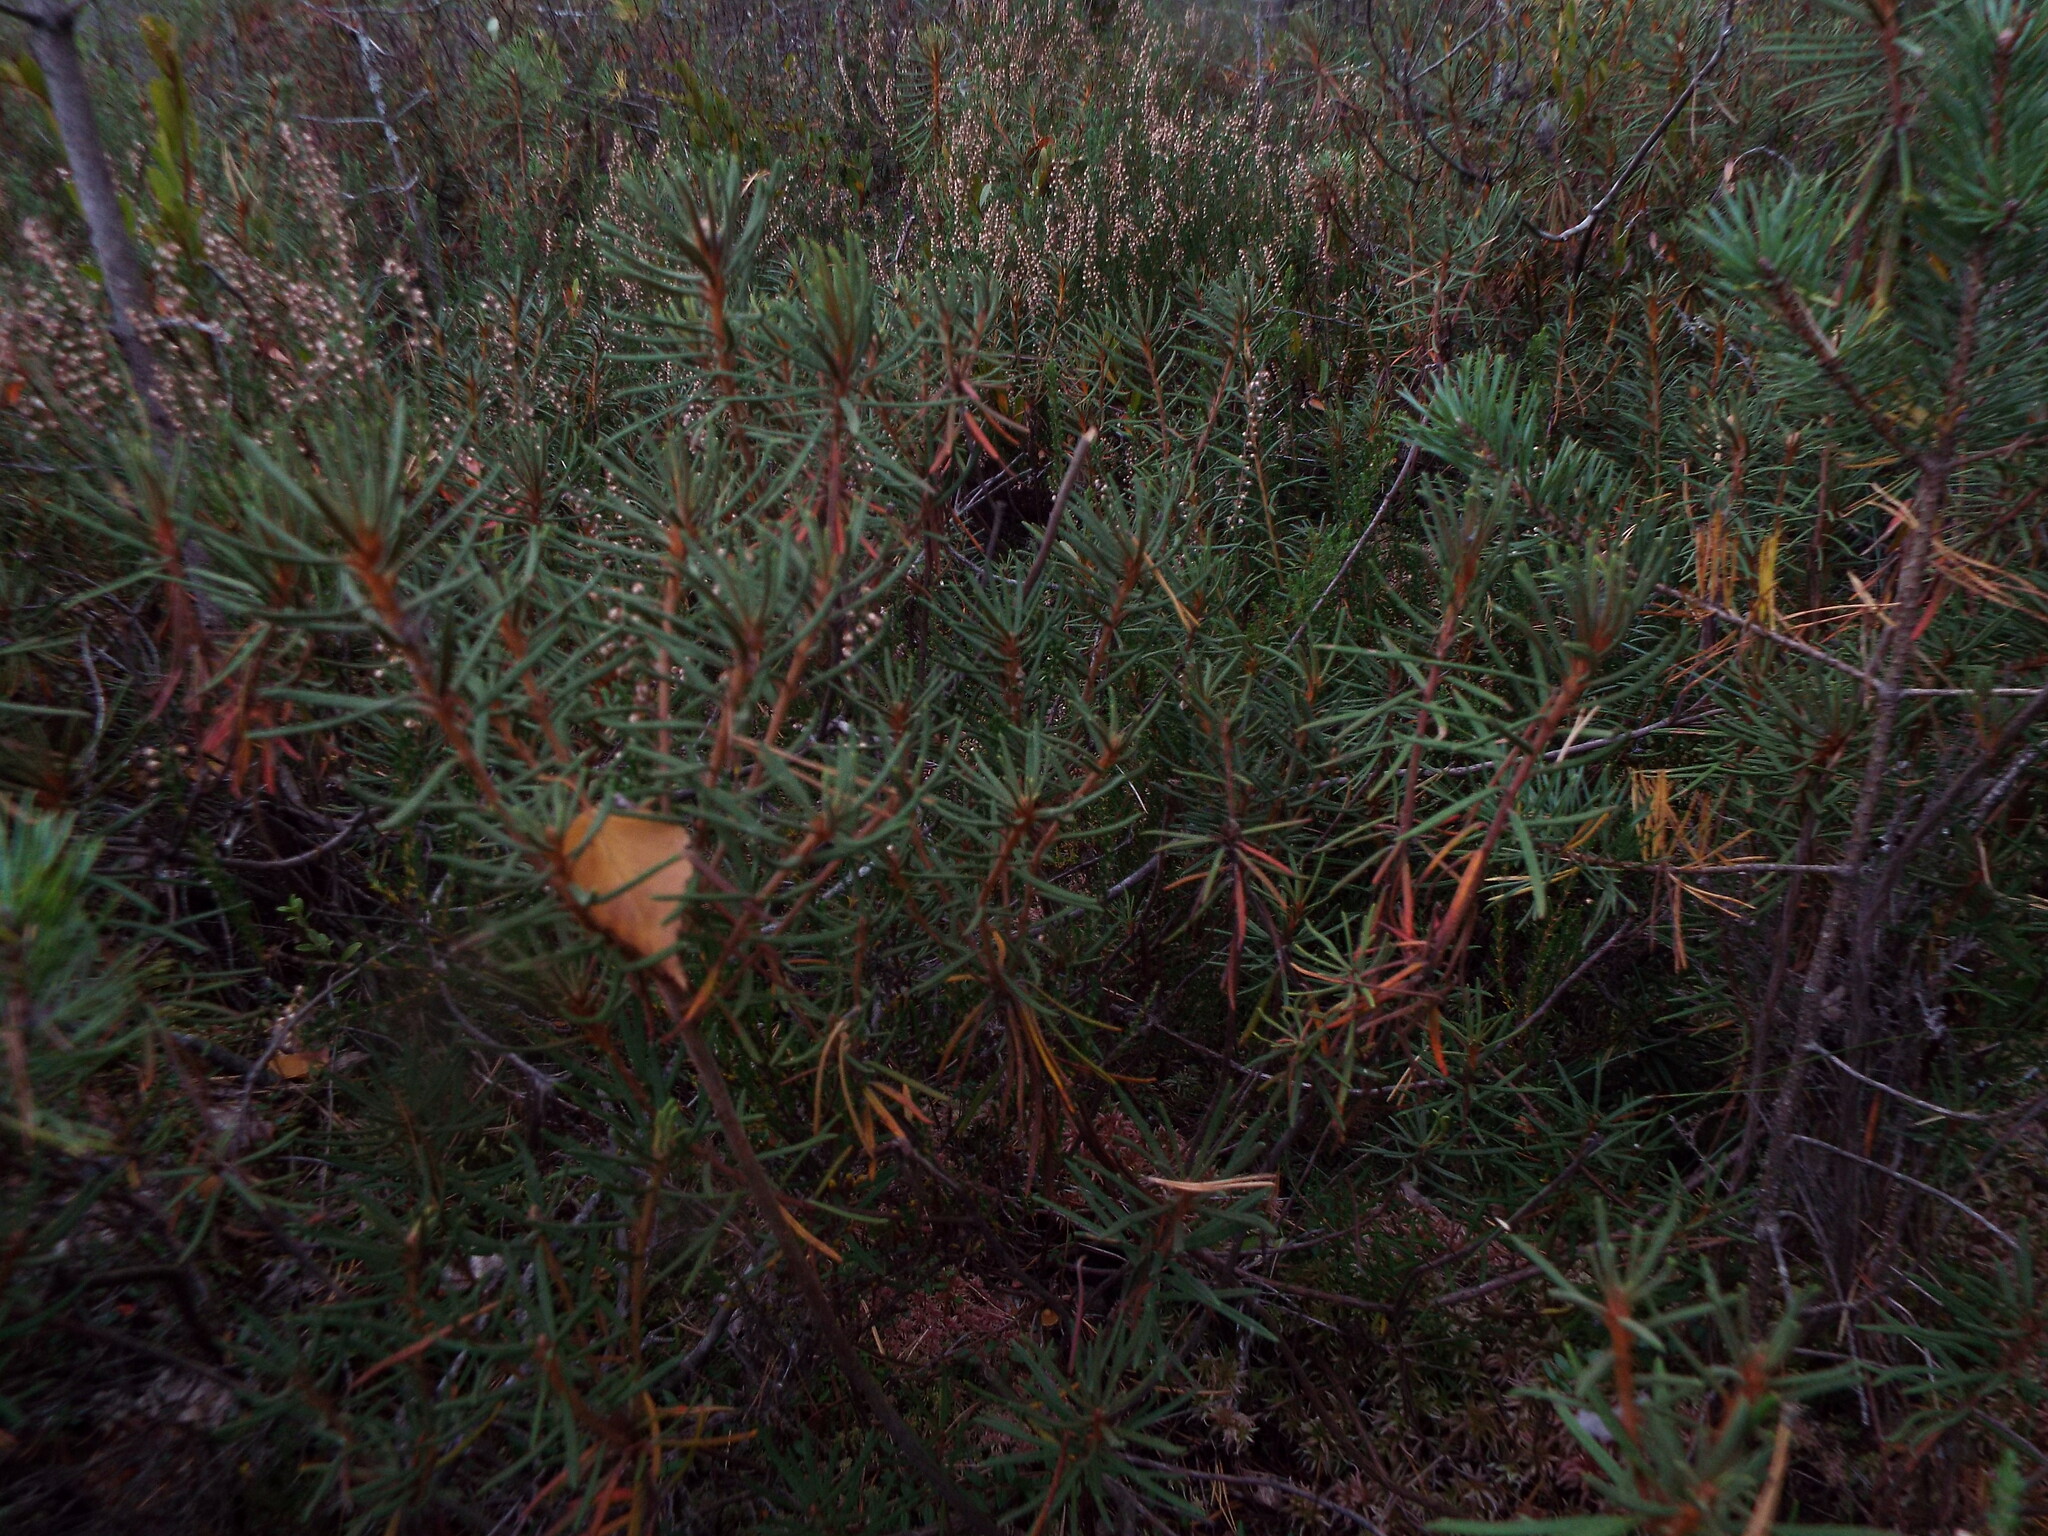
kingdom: Plantae
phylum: Tracheophyta
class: Magnoliopsida
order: Ericales
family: Ericaceae
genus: Rhododendron
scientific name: Rhododendron tomentosum
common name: Marsh labrador tea
